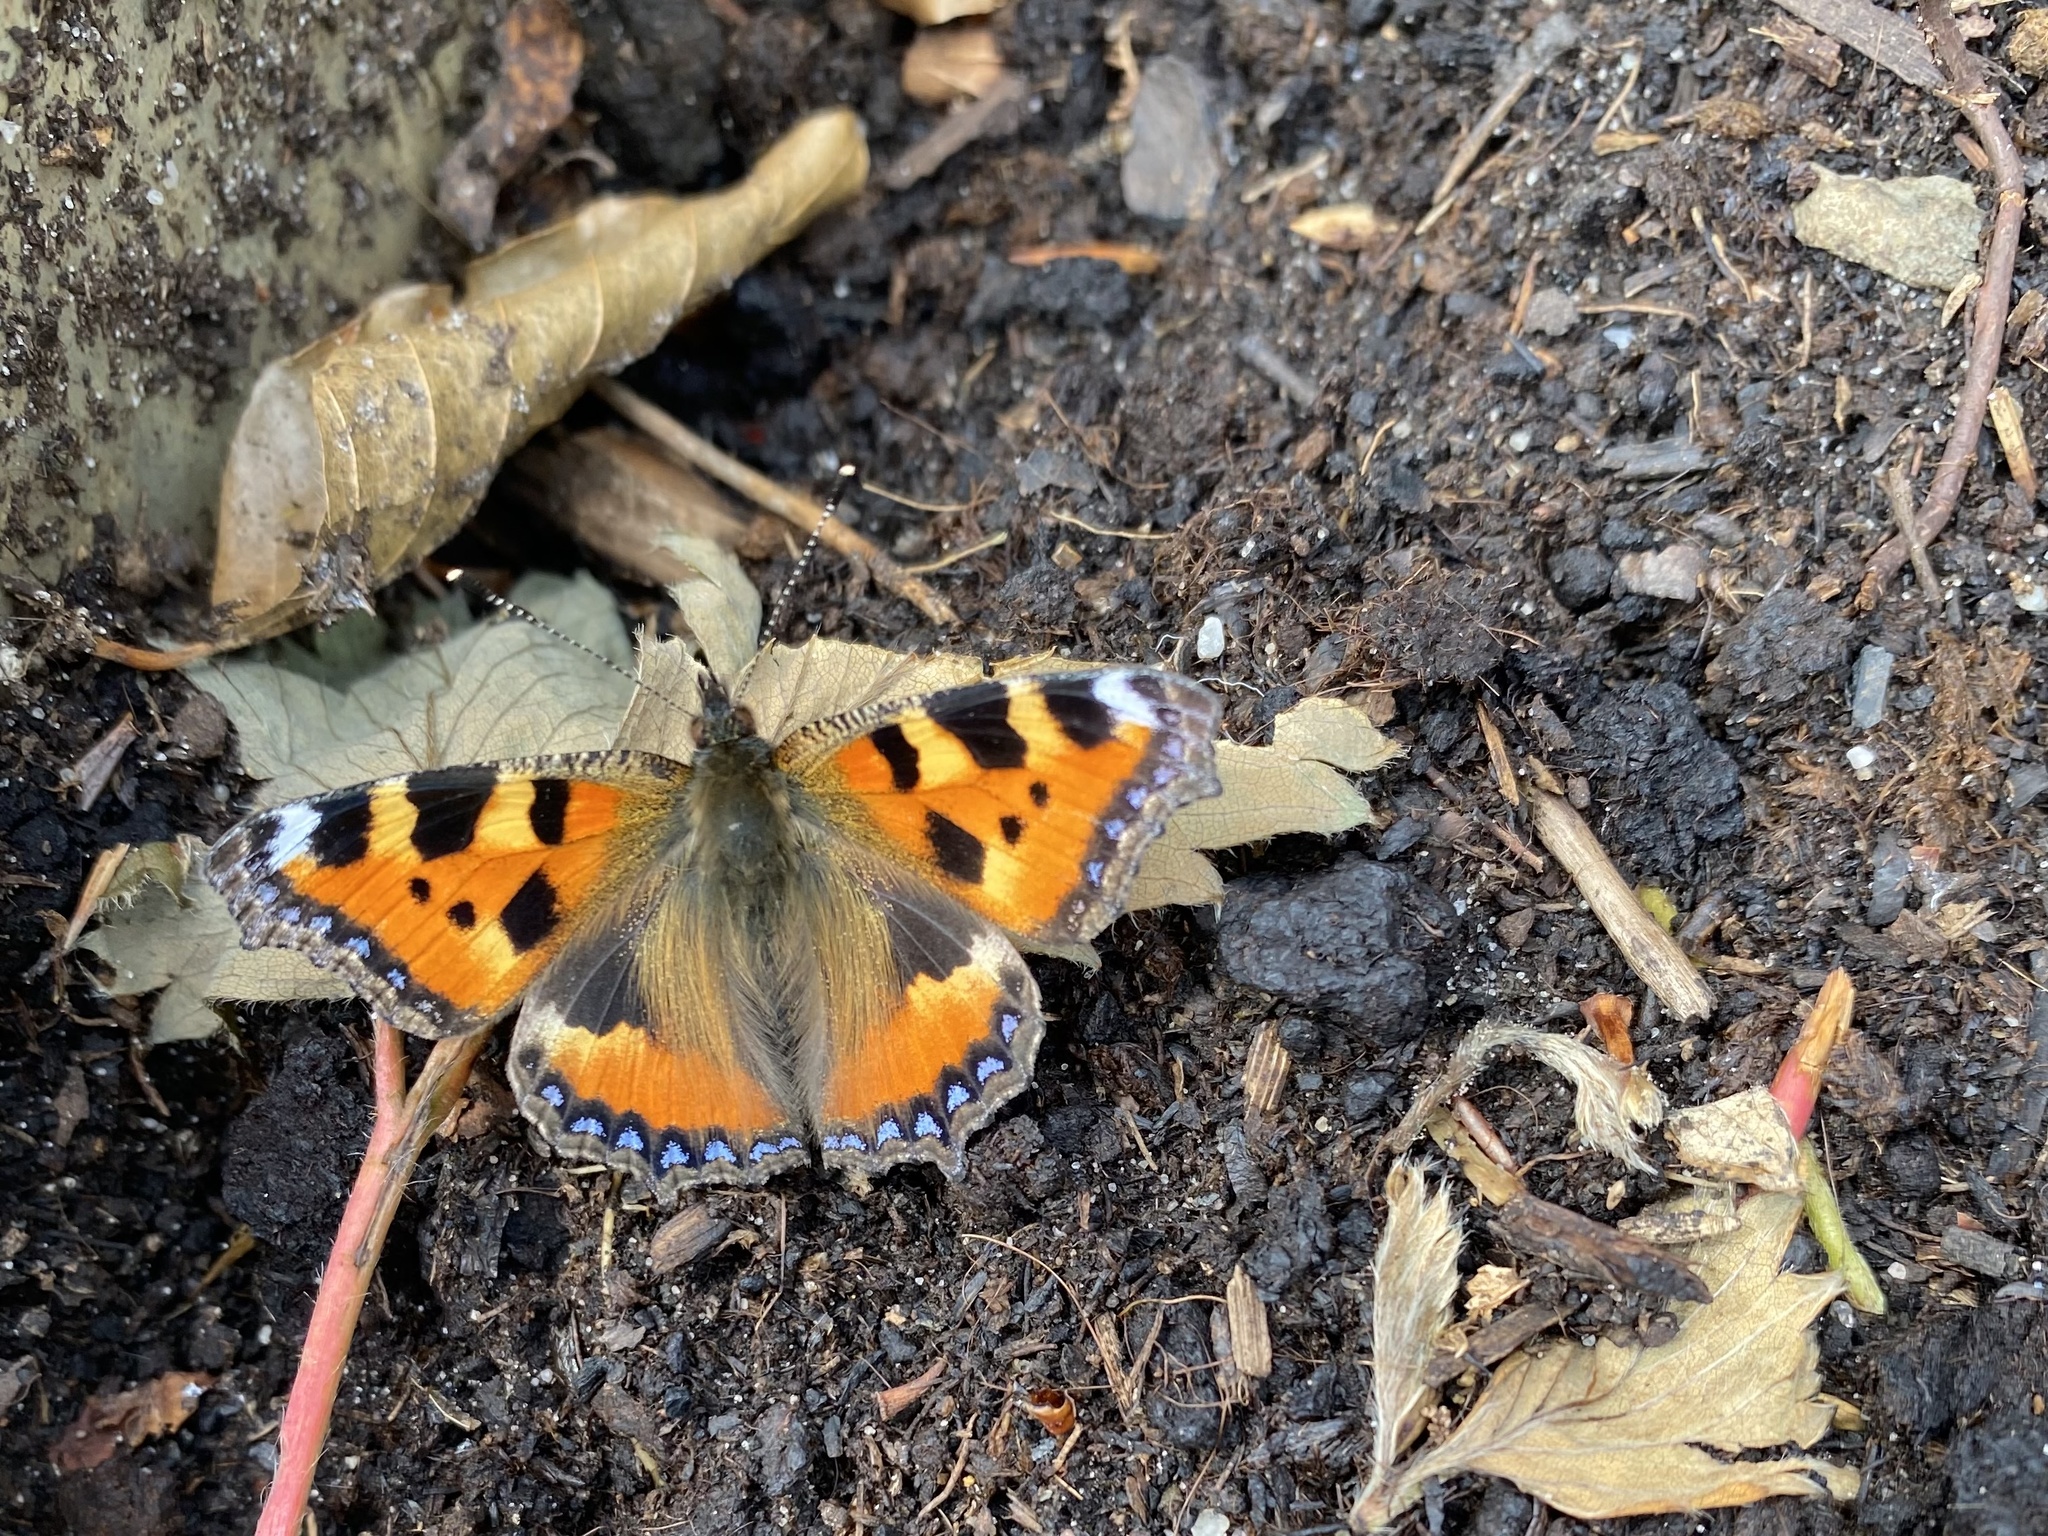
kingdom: Animalia
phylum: Arthropoda
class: Insecta
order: Lepidoptera
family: Nymphalidae
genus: Aglais
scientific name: Aglais urticae
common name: Small tortoiseshell
